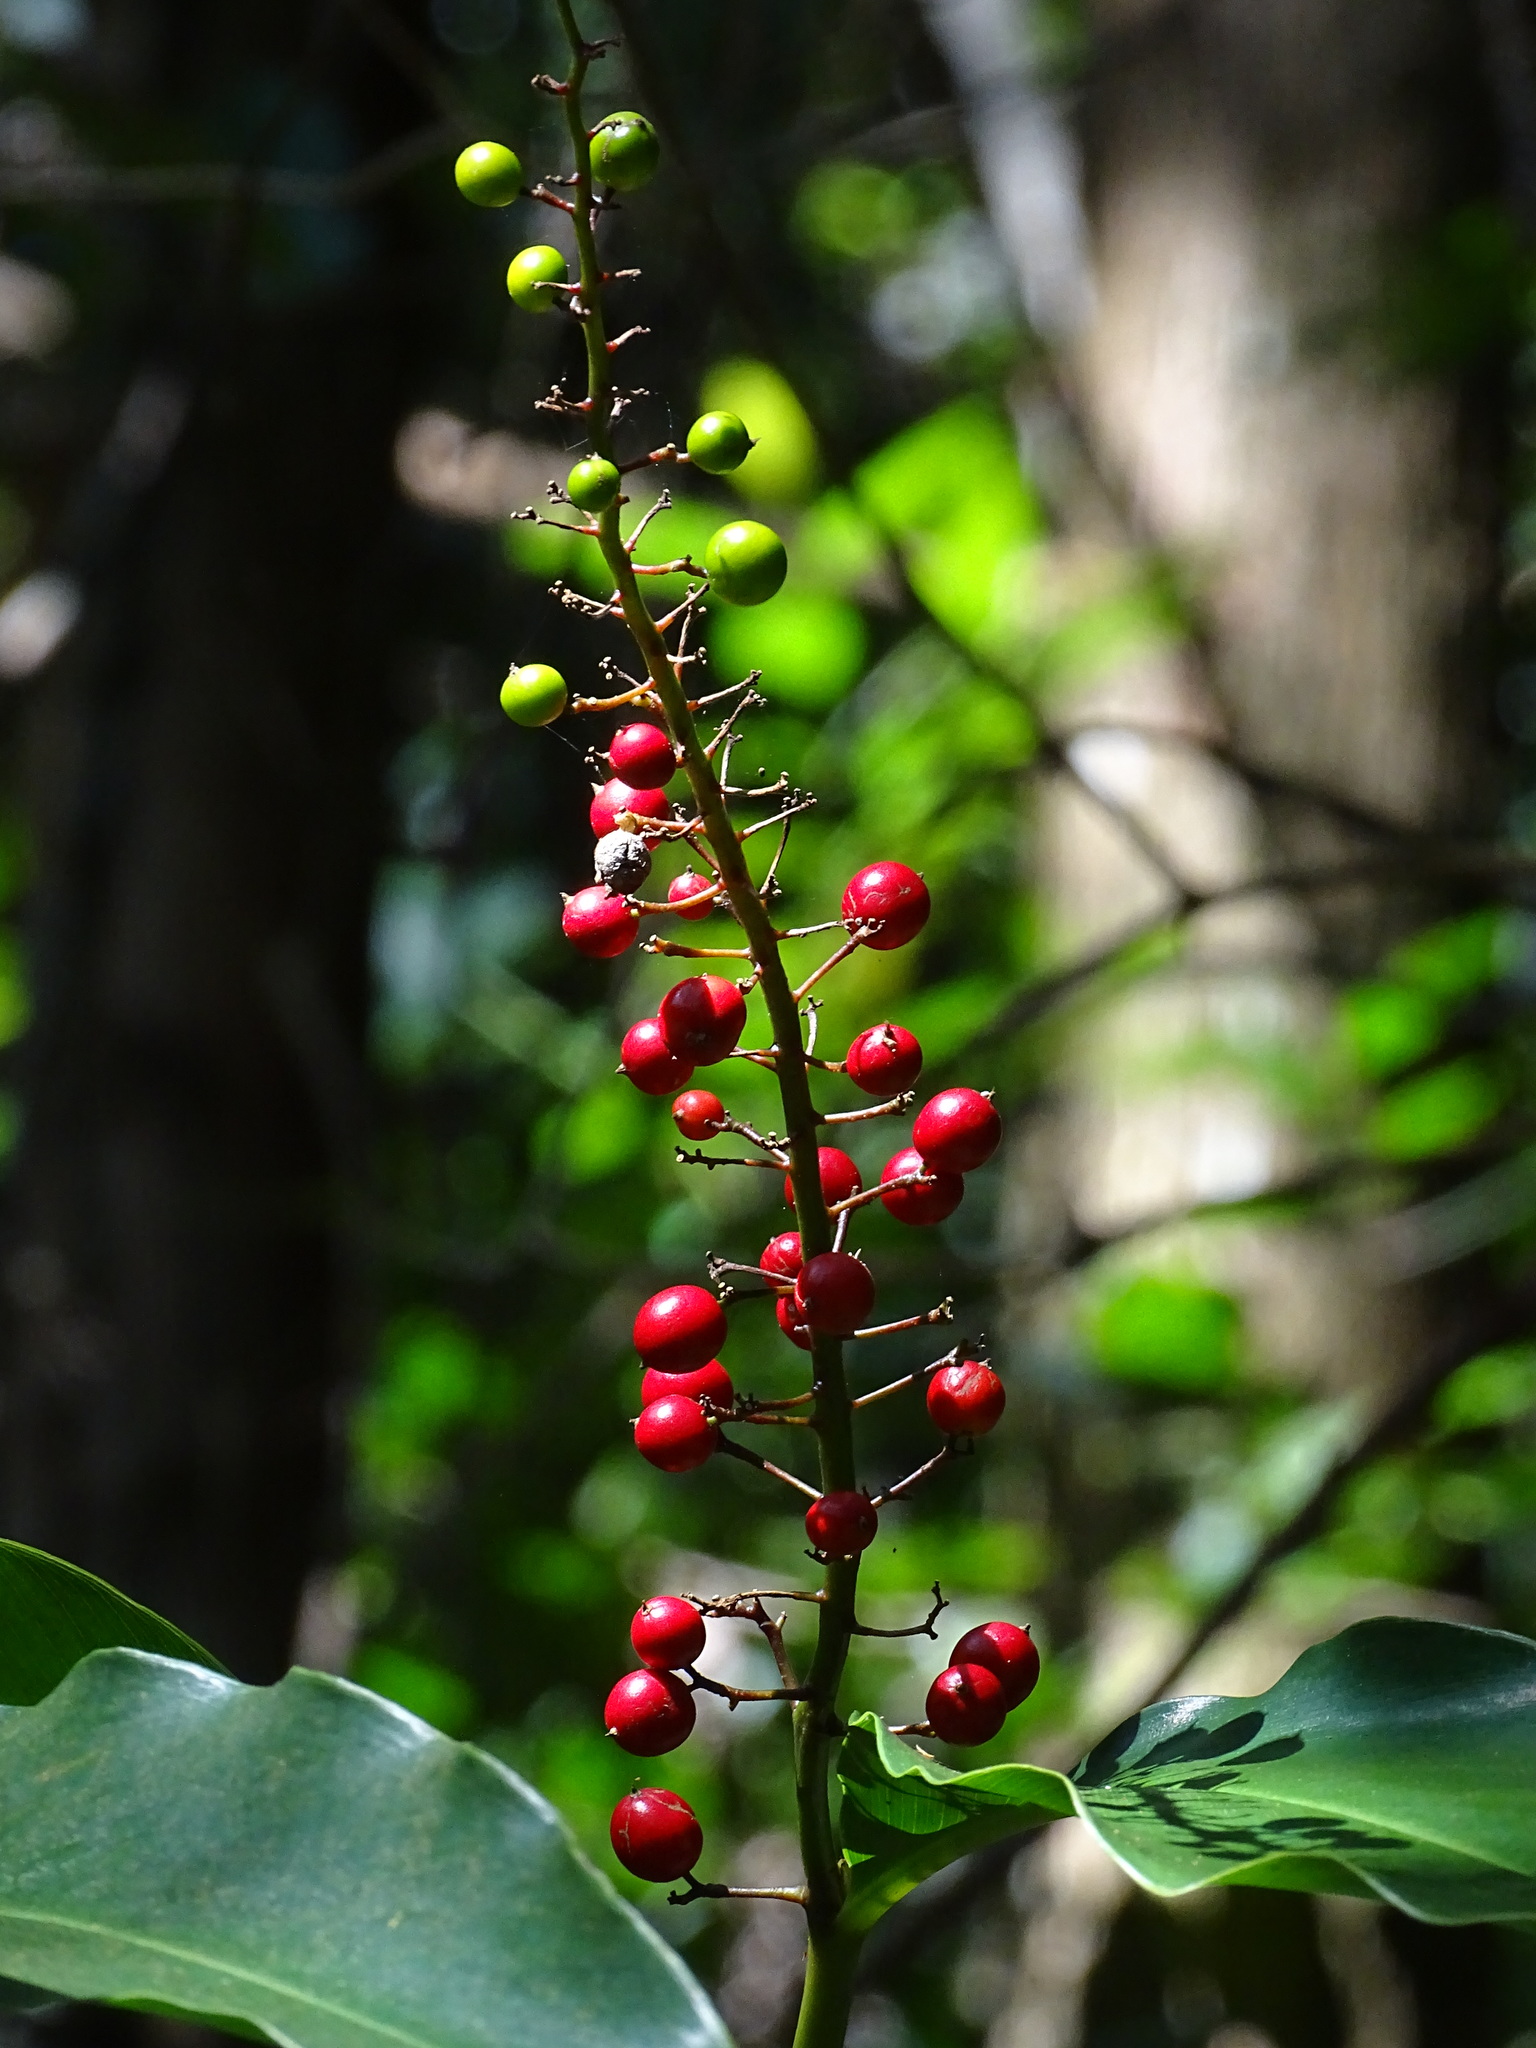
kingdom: Plantae
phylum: Tracheophyta
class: Liliopsida
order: Zingiberales
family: Zingiberaceae
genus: Alpinia
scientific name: Alpinia intermedia
